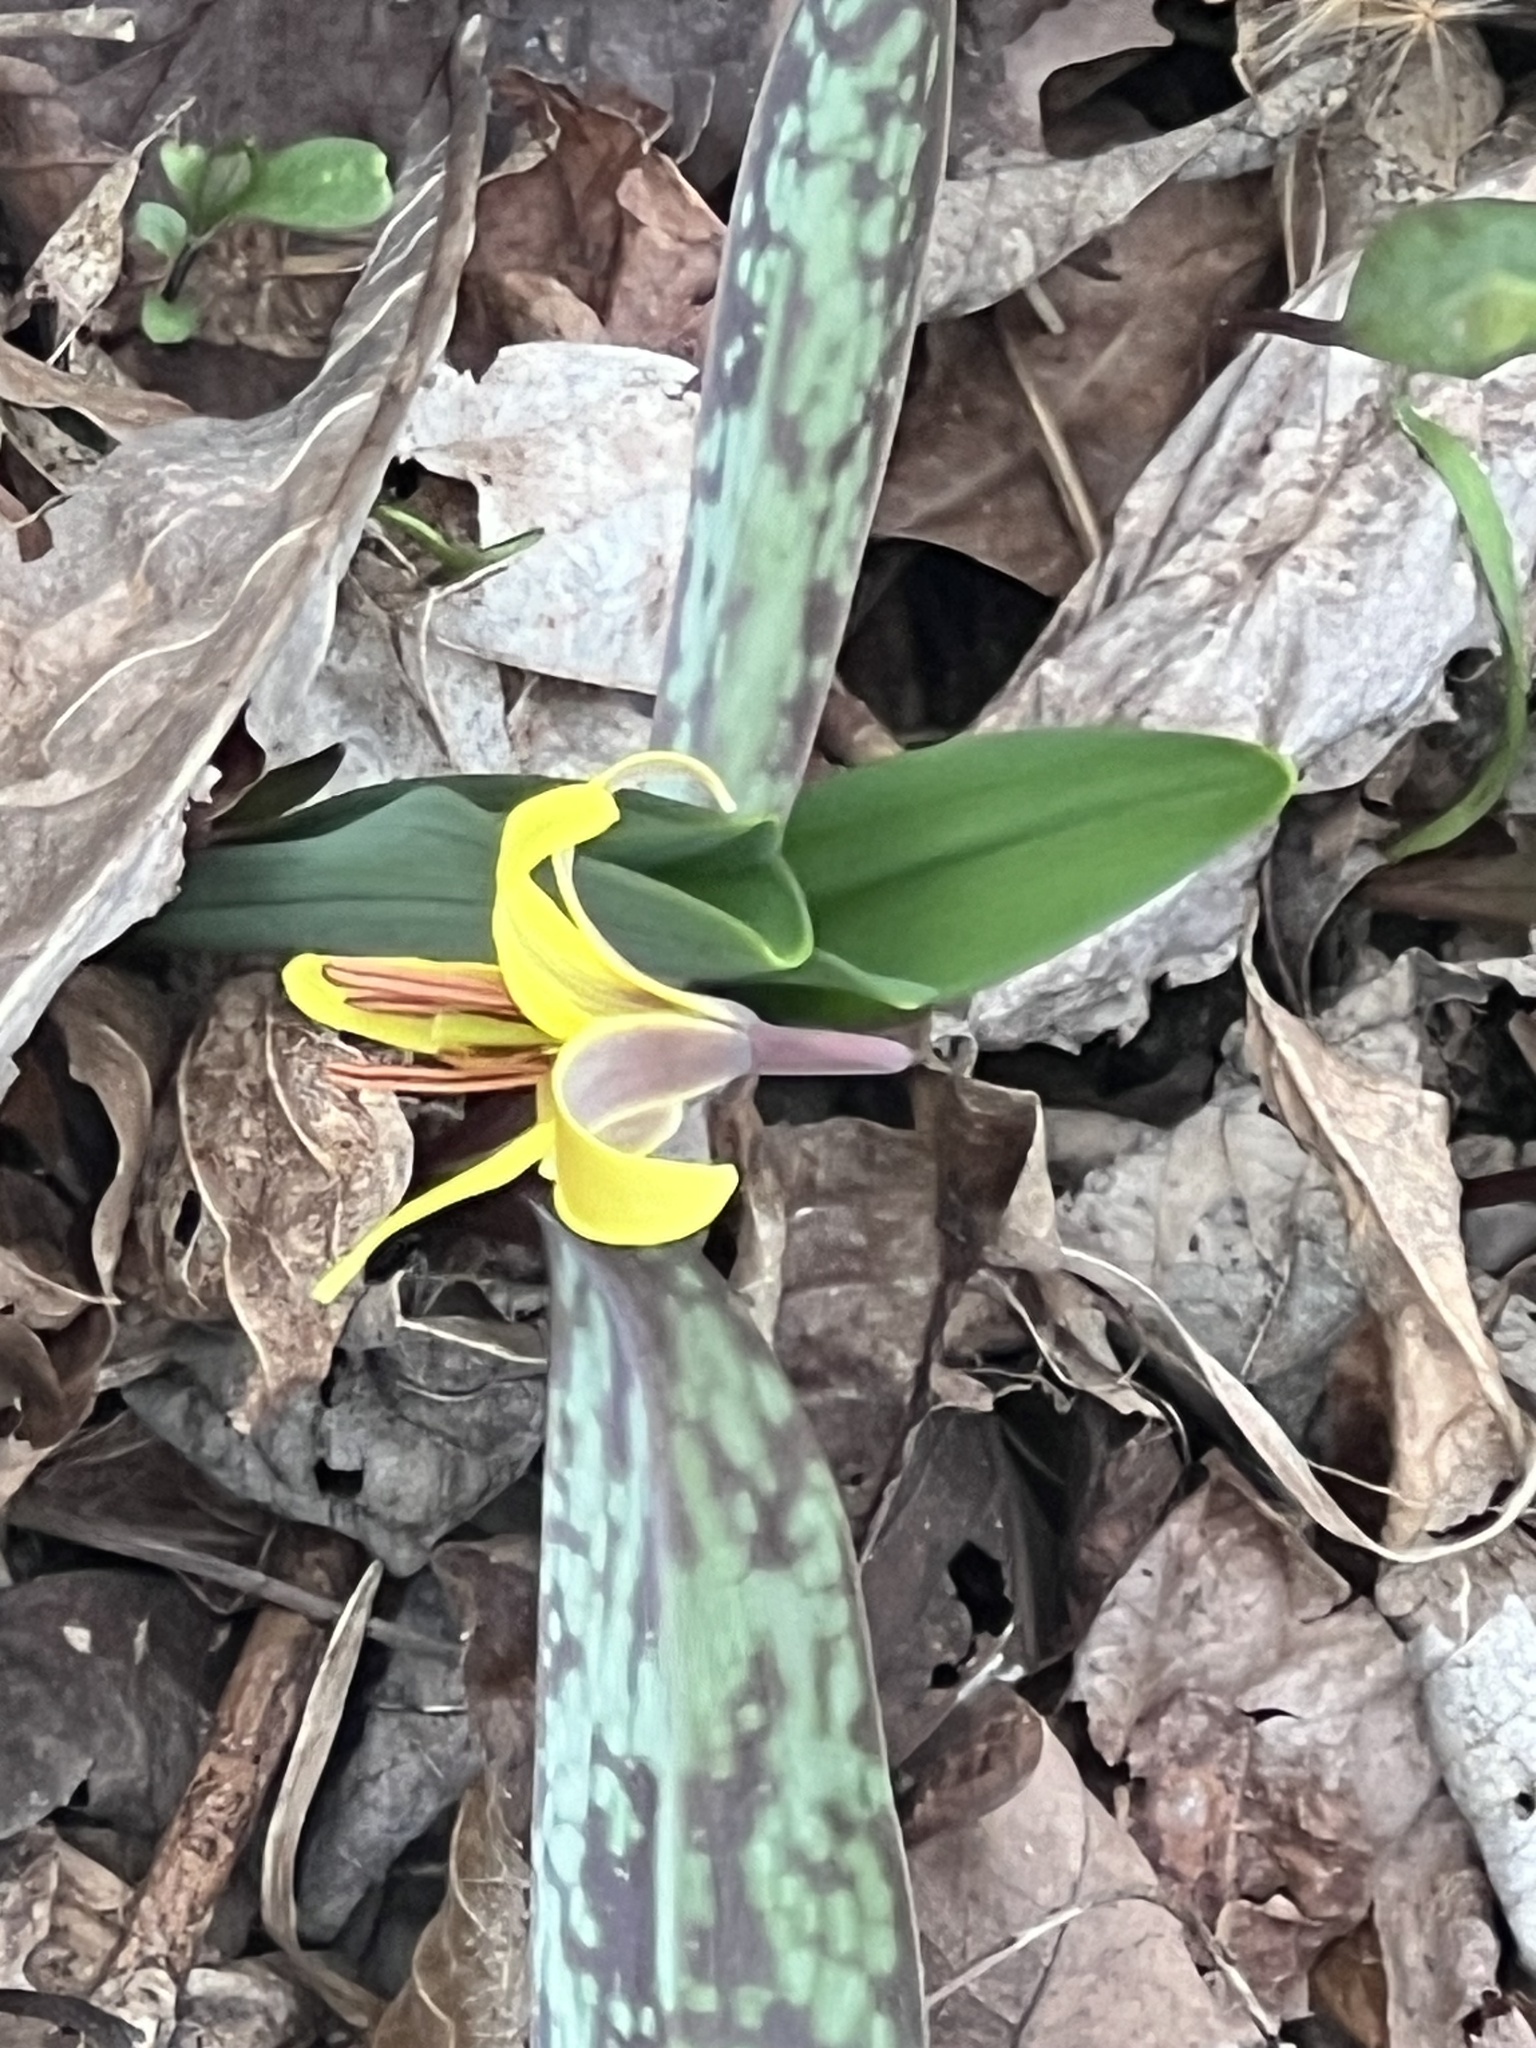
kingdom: Plantae
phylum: Tracheophyta
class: Liliopsida
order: Liliales
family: Liliaceae
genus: Erythronium
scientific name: Erythronium americanum
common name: Yellow adder's-tongue
